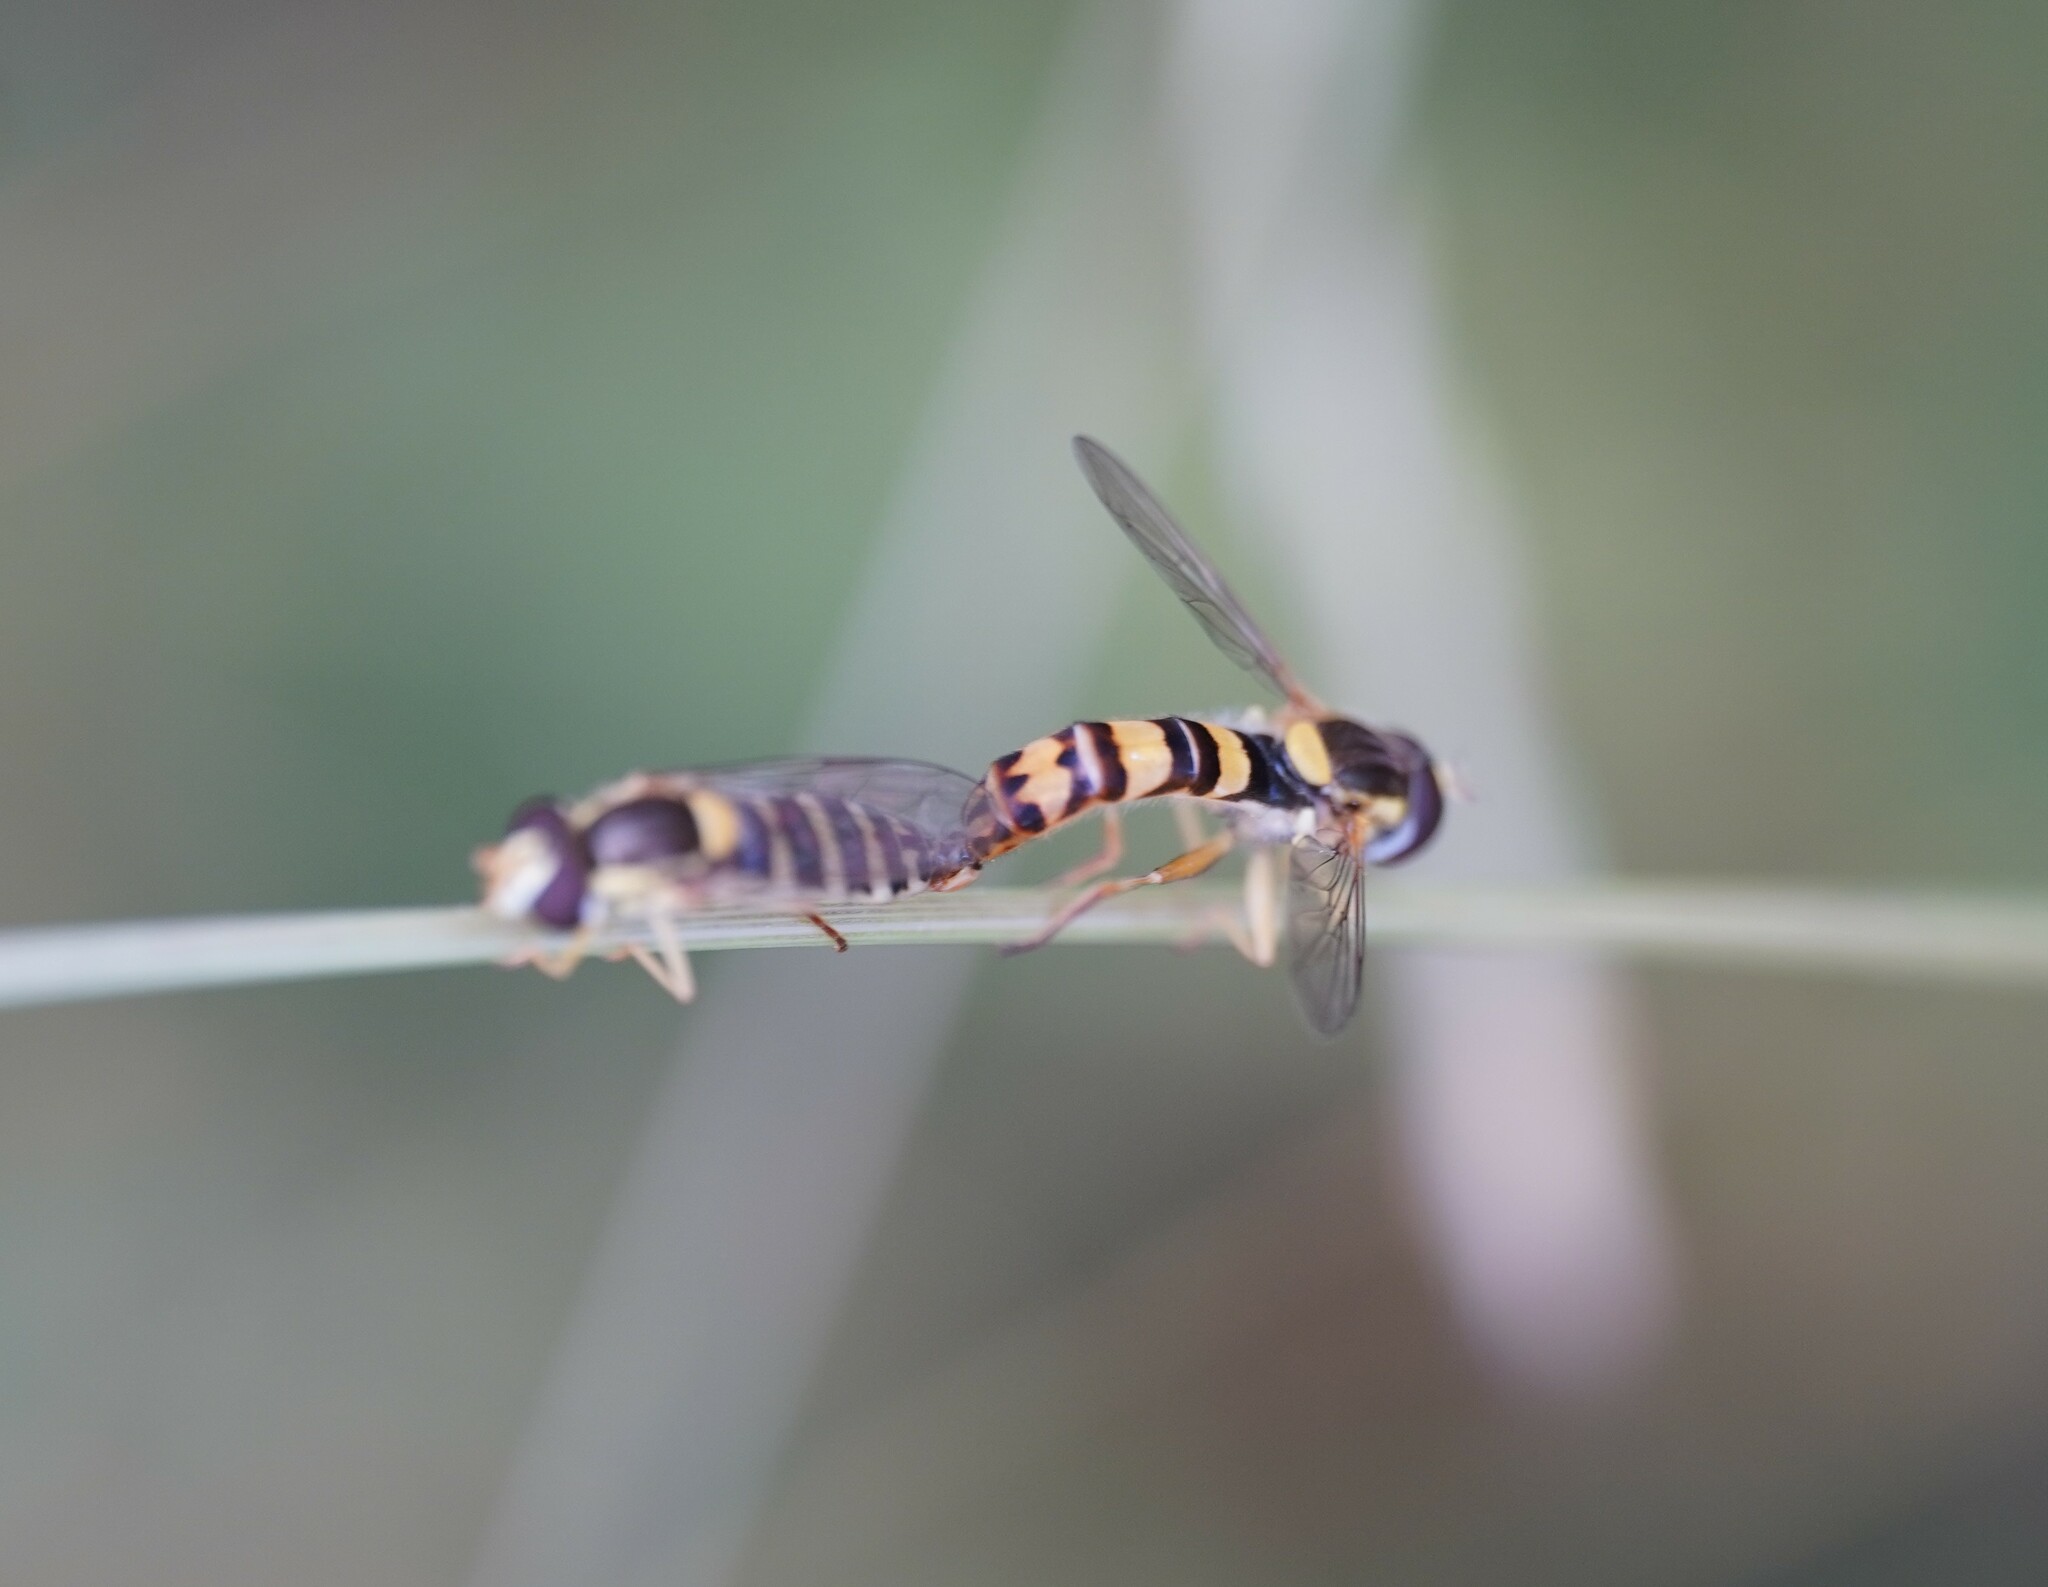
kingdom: Animalia
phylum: Arthropoda
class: Insecta
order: Diptera
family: Syrphidae
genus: Sphaerophoria
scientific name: Sphaerophoria scripta
